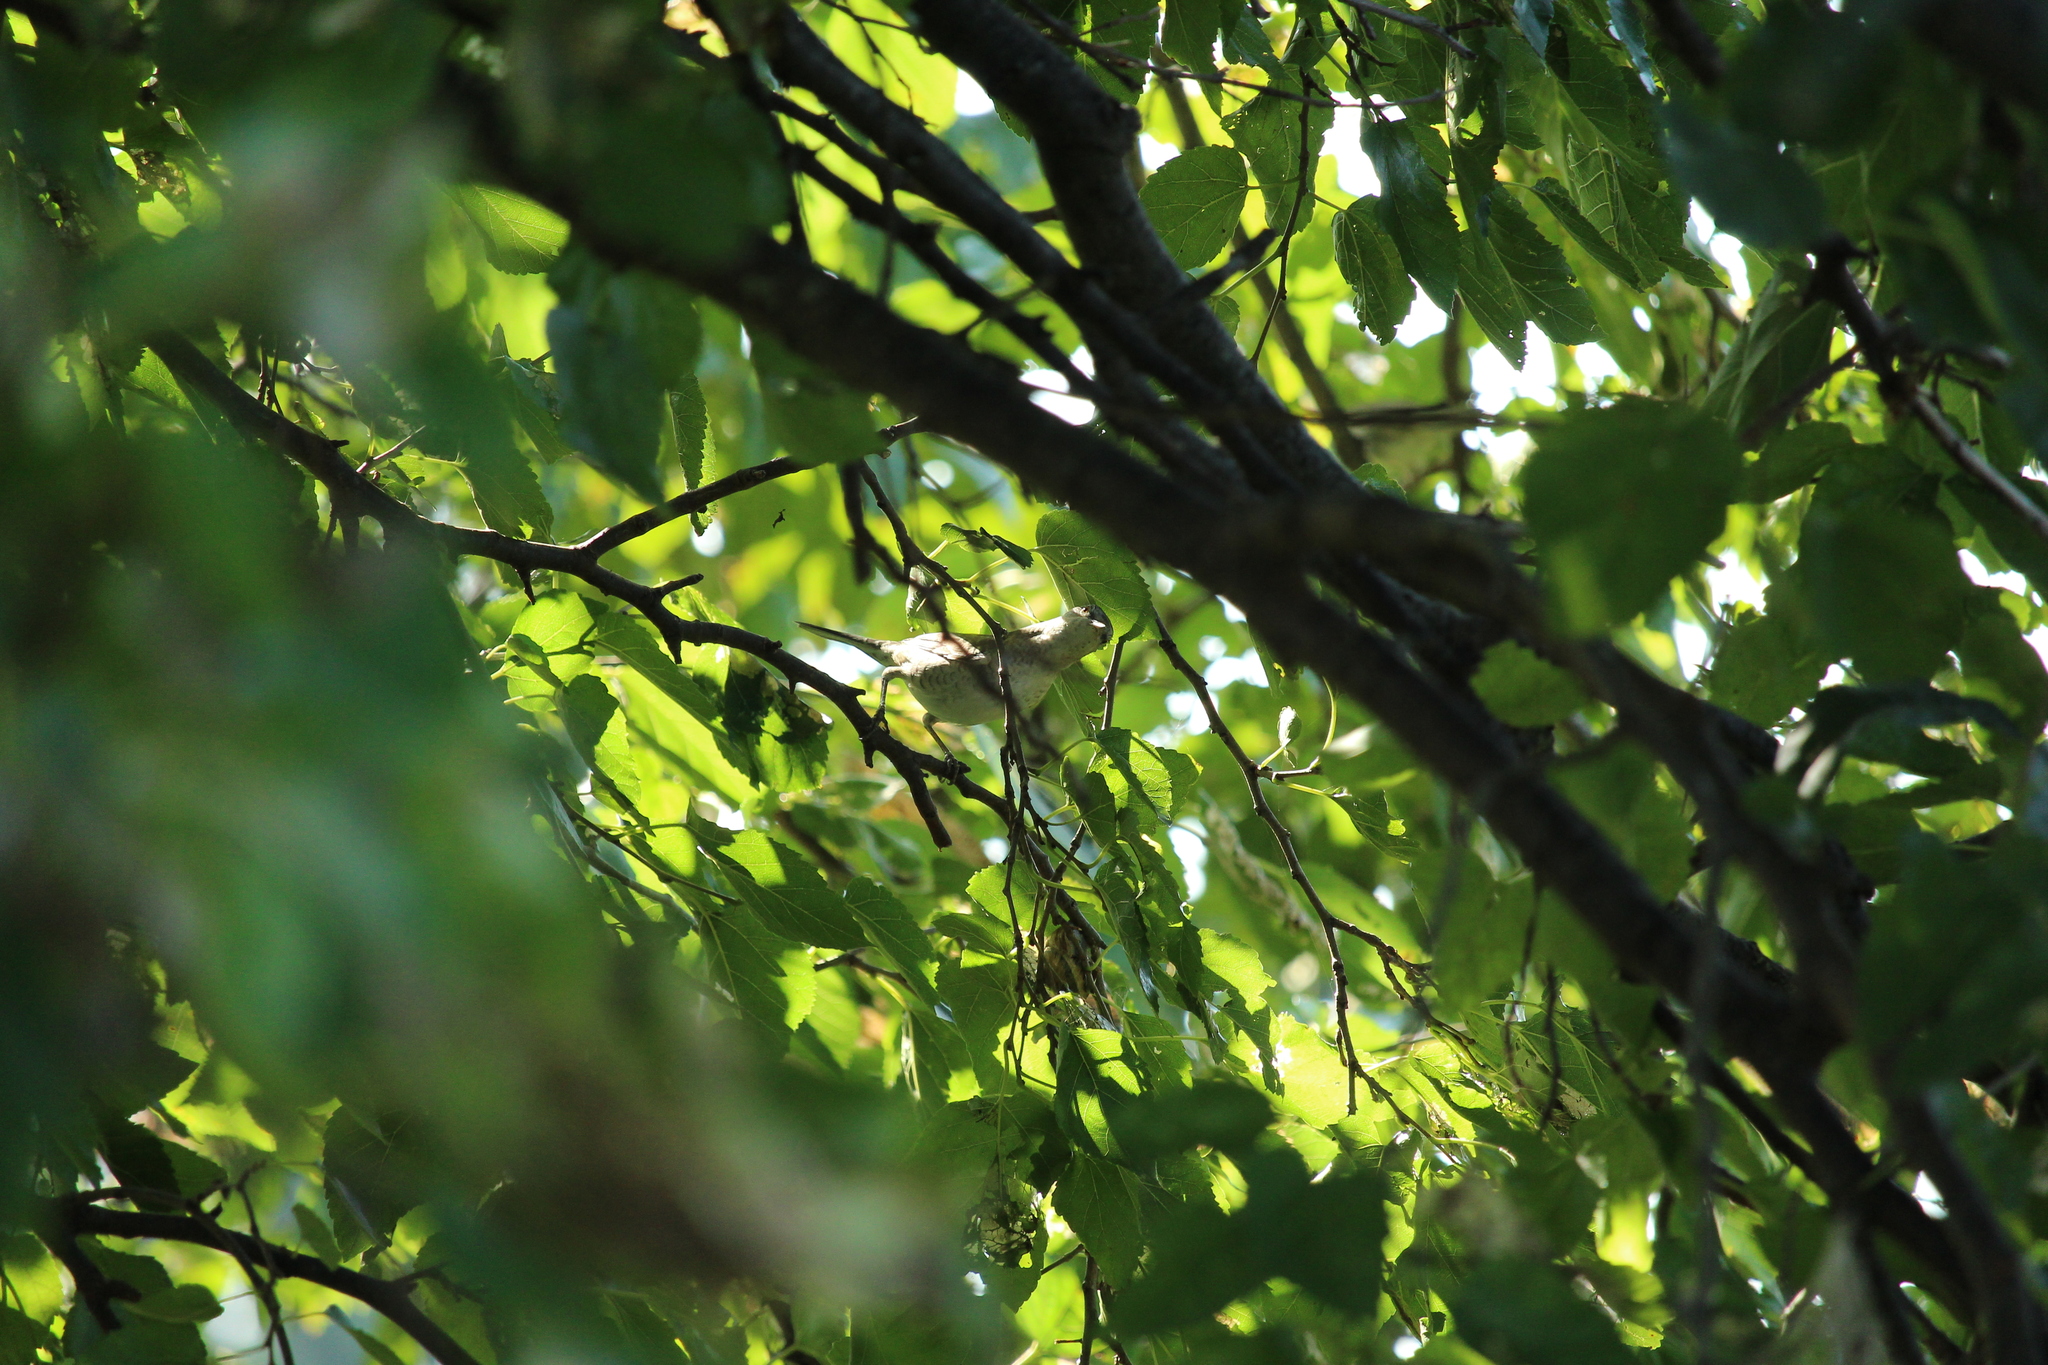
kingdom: Animalia
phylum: Chordata
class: Aves
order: Passeriformes
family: Sylviidae
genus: Sylvia
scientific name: Sylvia nisoria
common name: Barred warbler
